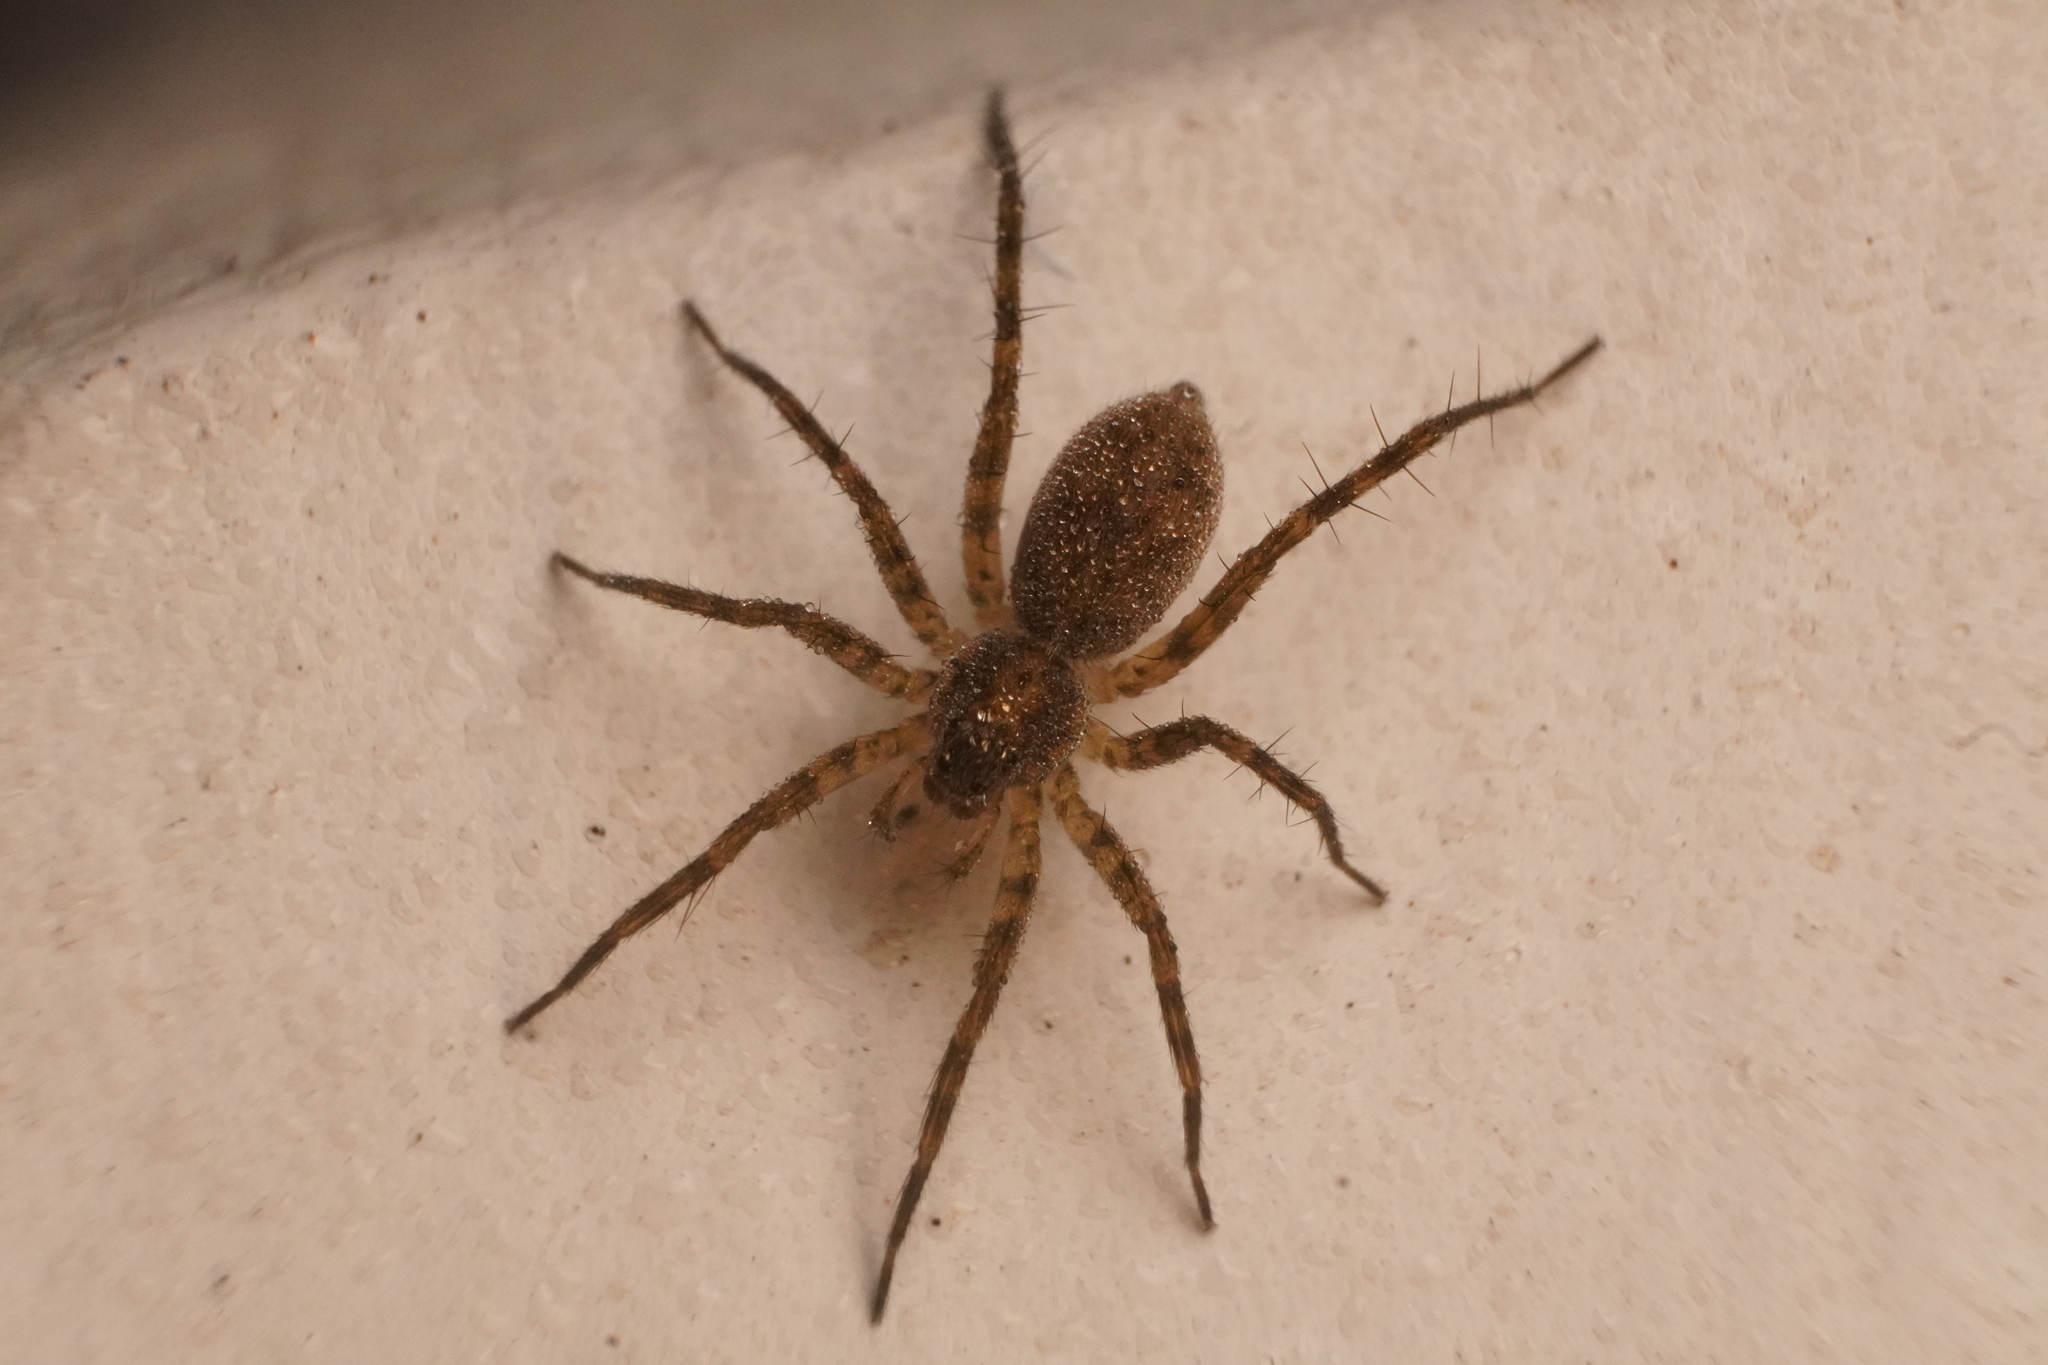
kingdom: Animalia
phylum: Arthropoda
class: Arachnida
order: Araneae
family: Lycosidae
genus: Pardosa
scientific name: Pardosa lapidicina
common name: Stone spider
